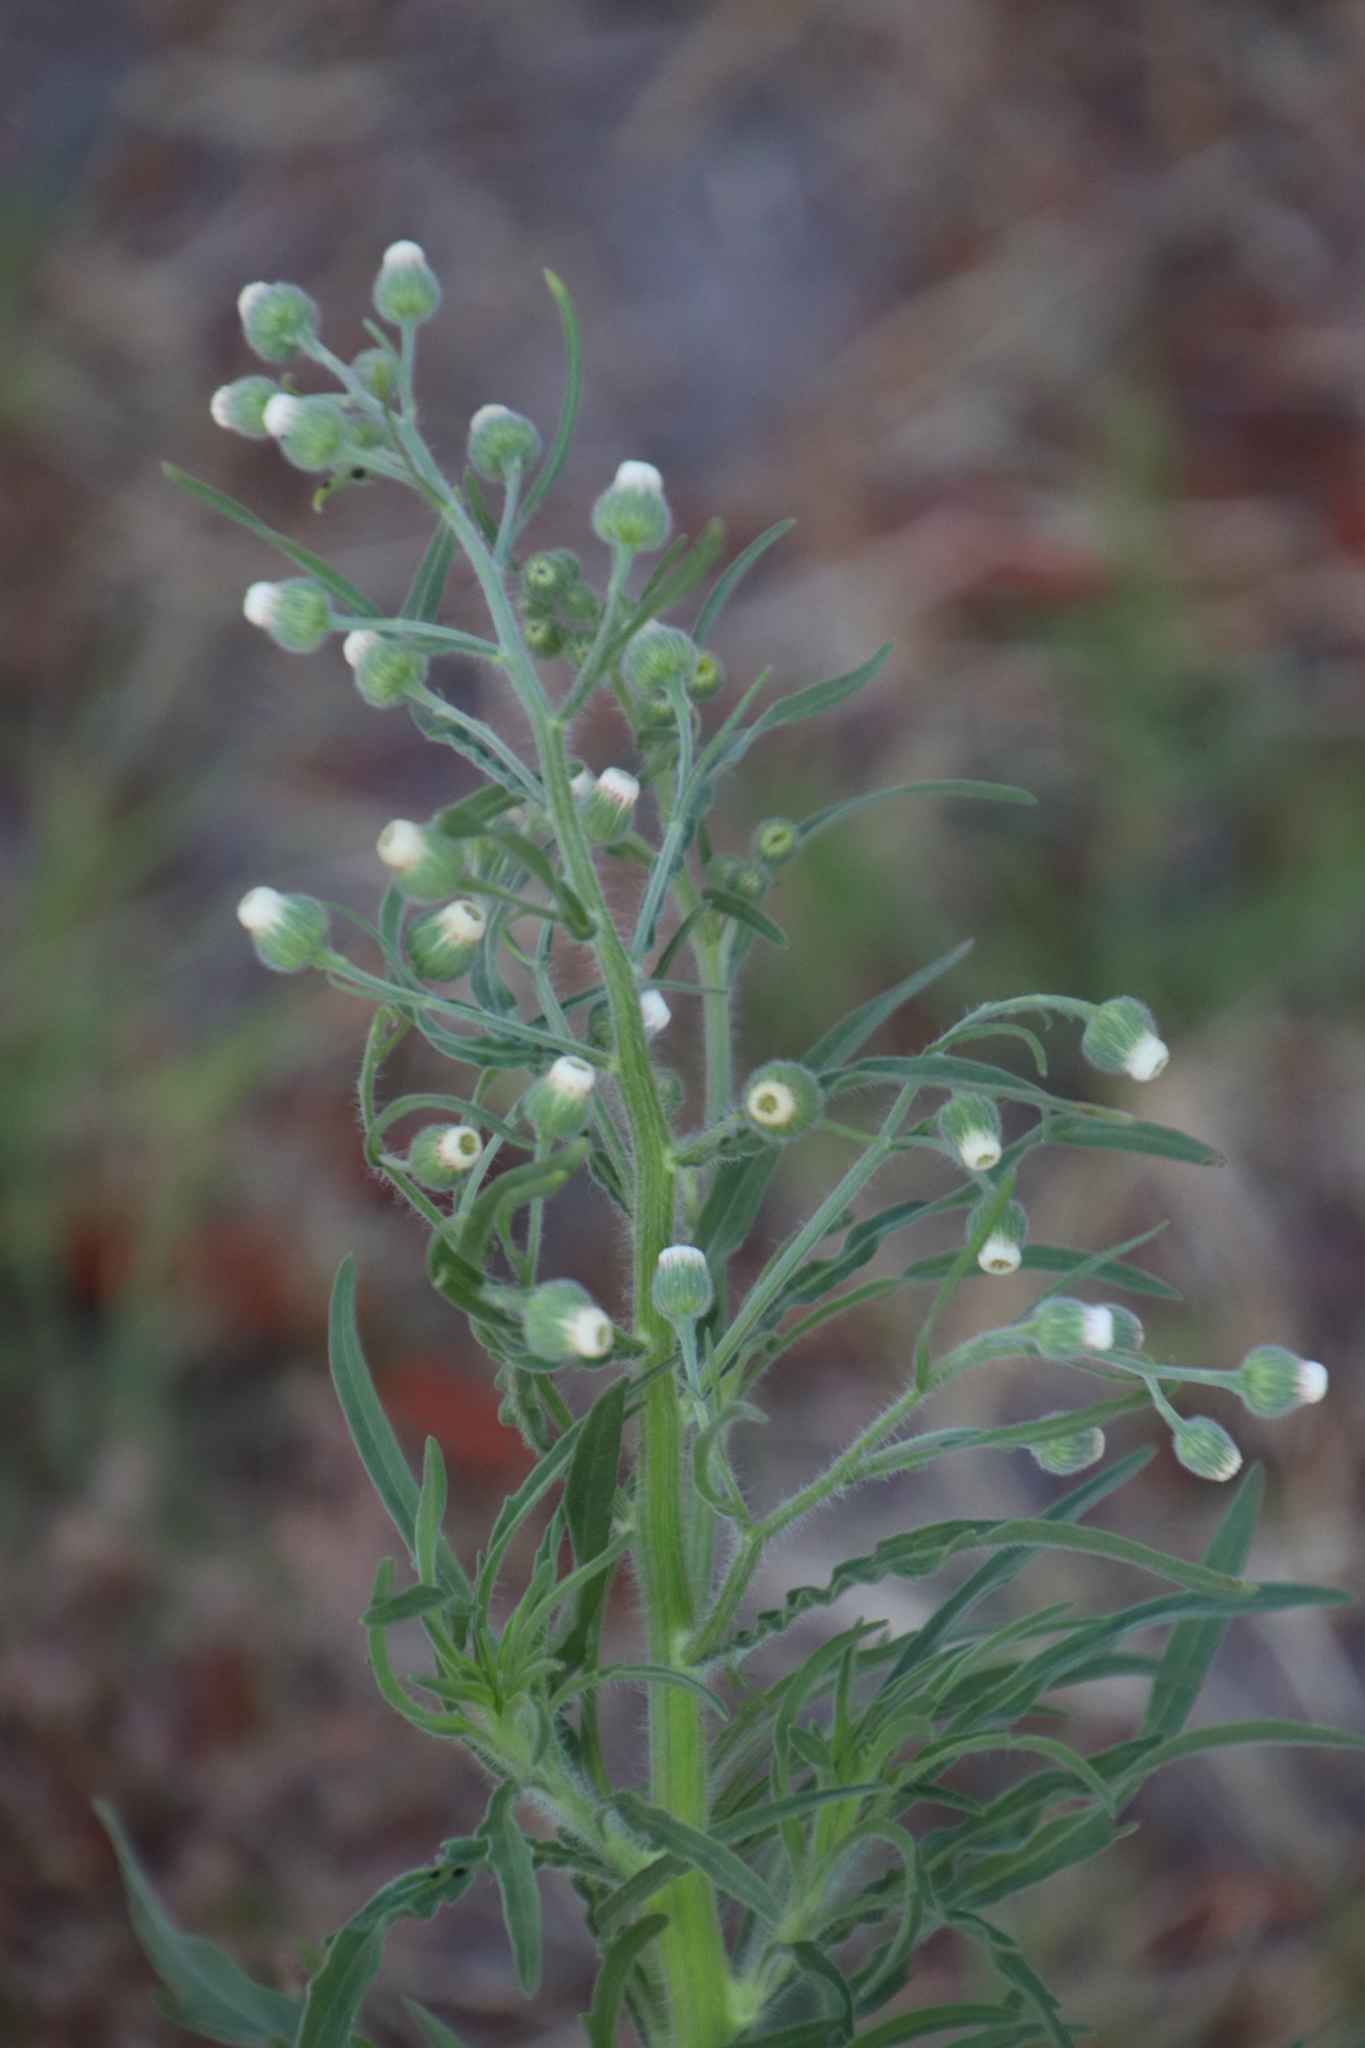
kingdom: Plantae
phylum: Tracheophyta
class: Magnoliopsida
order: Asterales
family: Asteraceae
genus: Erigeron
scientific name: Erigeron bonariensis
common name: Argentine fleabane
